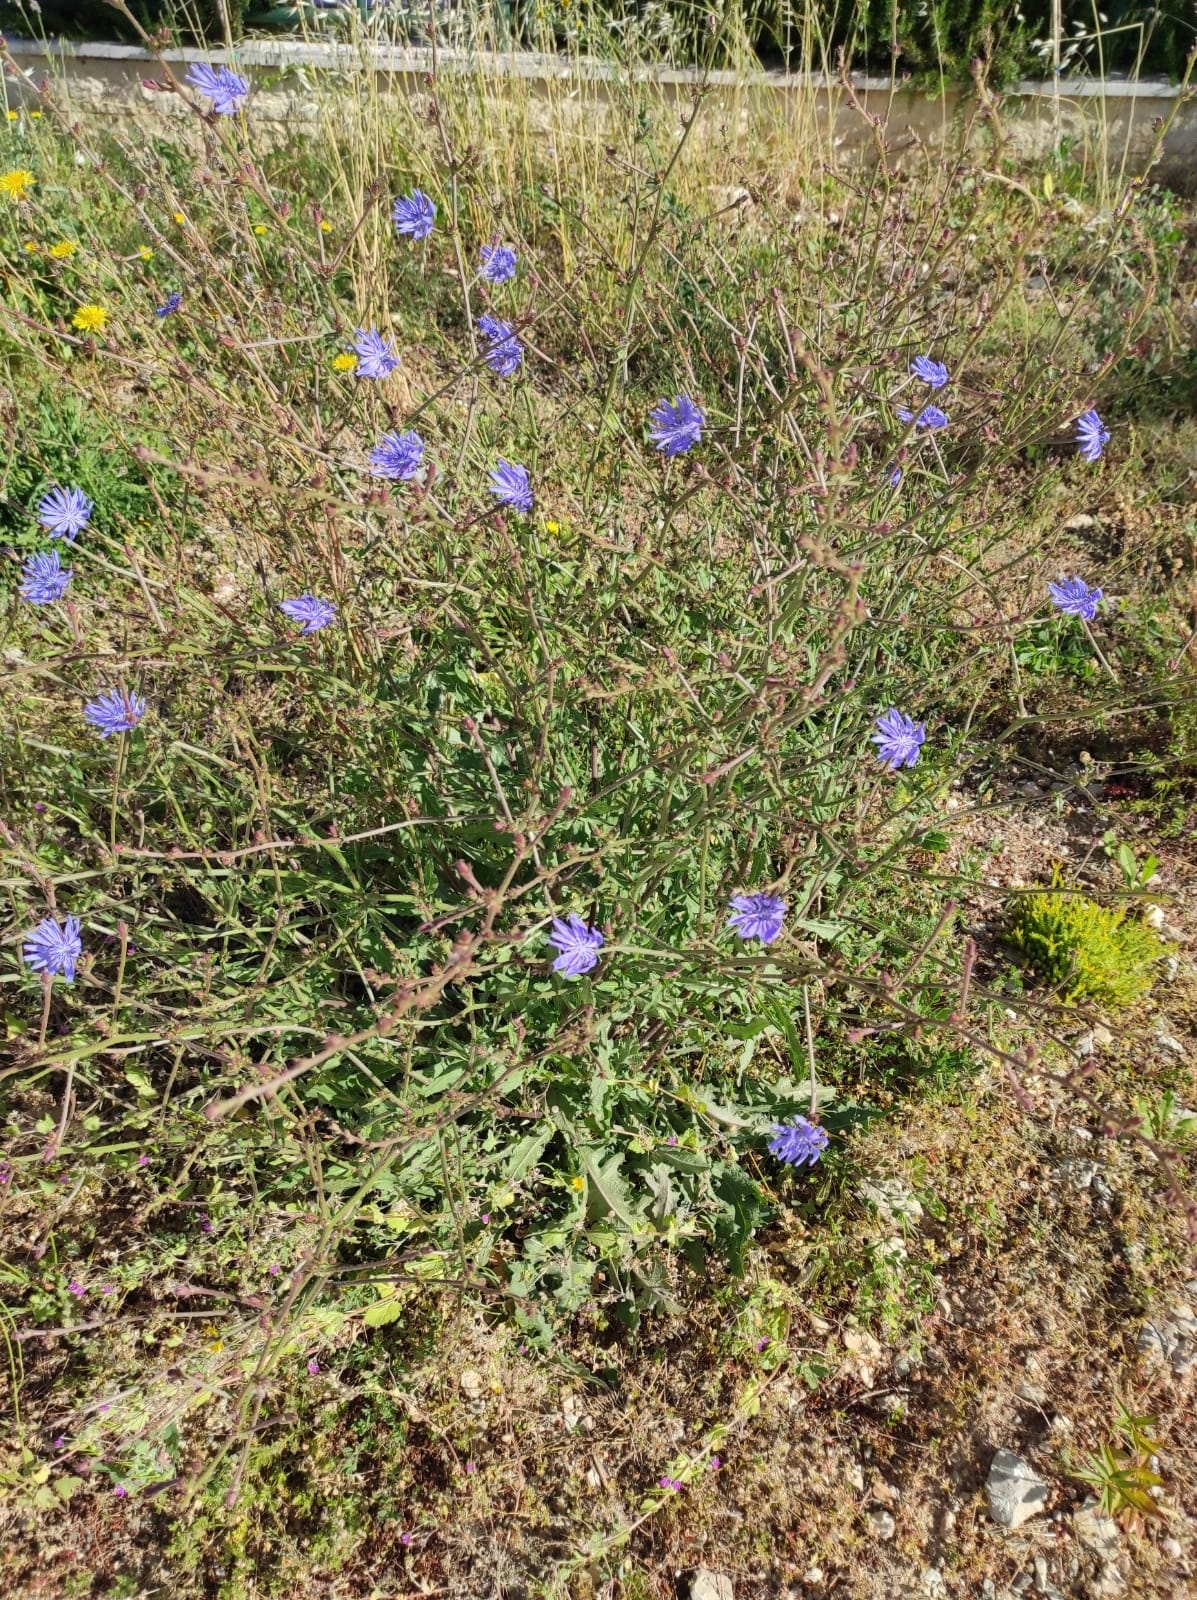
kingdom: Plantae
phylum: Tracheophyta
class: Magnoliopsida
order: Asterales
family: Asteraceae
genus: Cichorium
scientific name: Cichorium intybus
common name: Chicory
